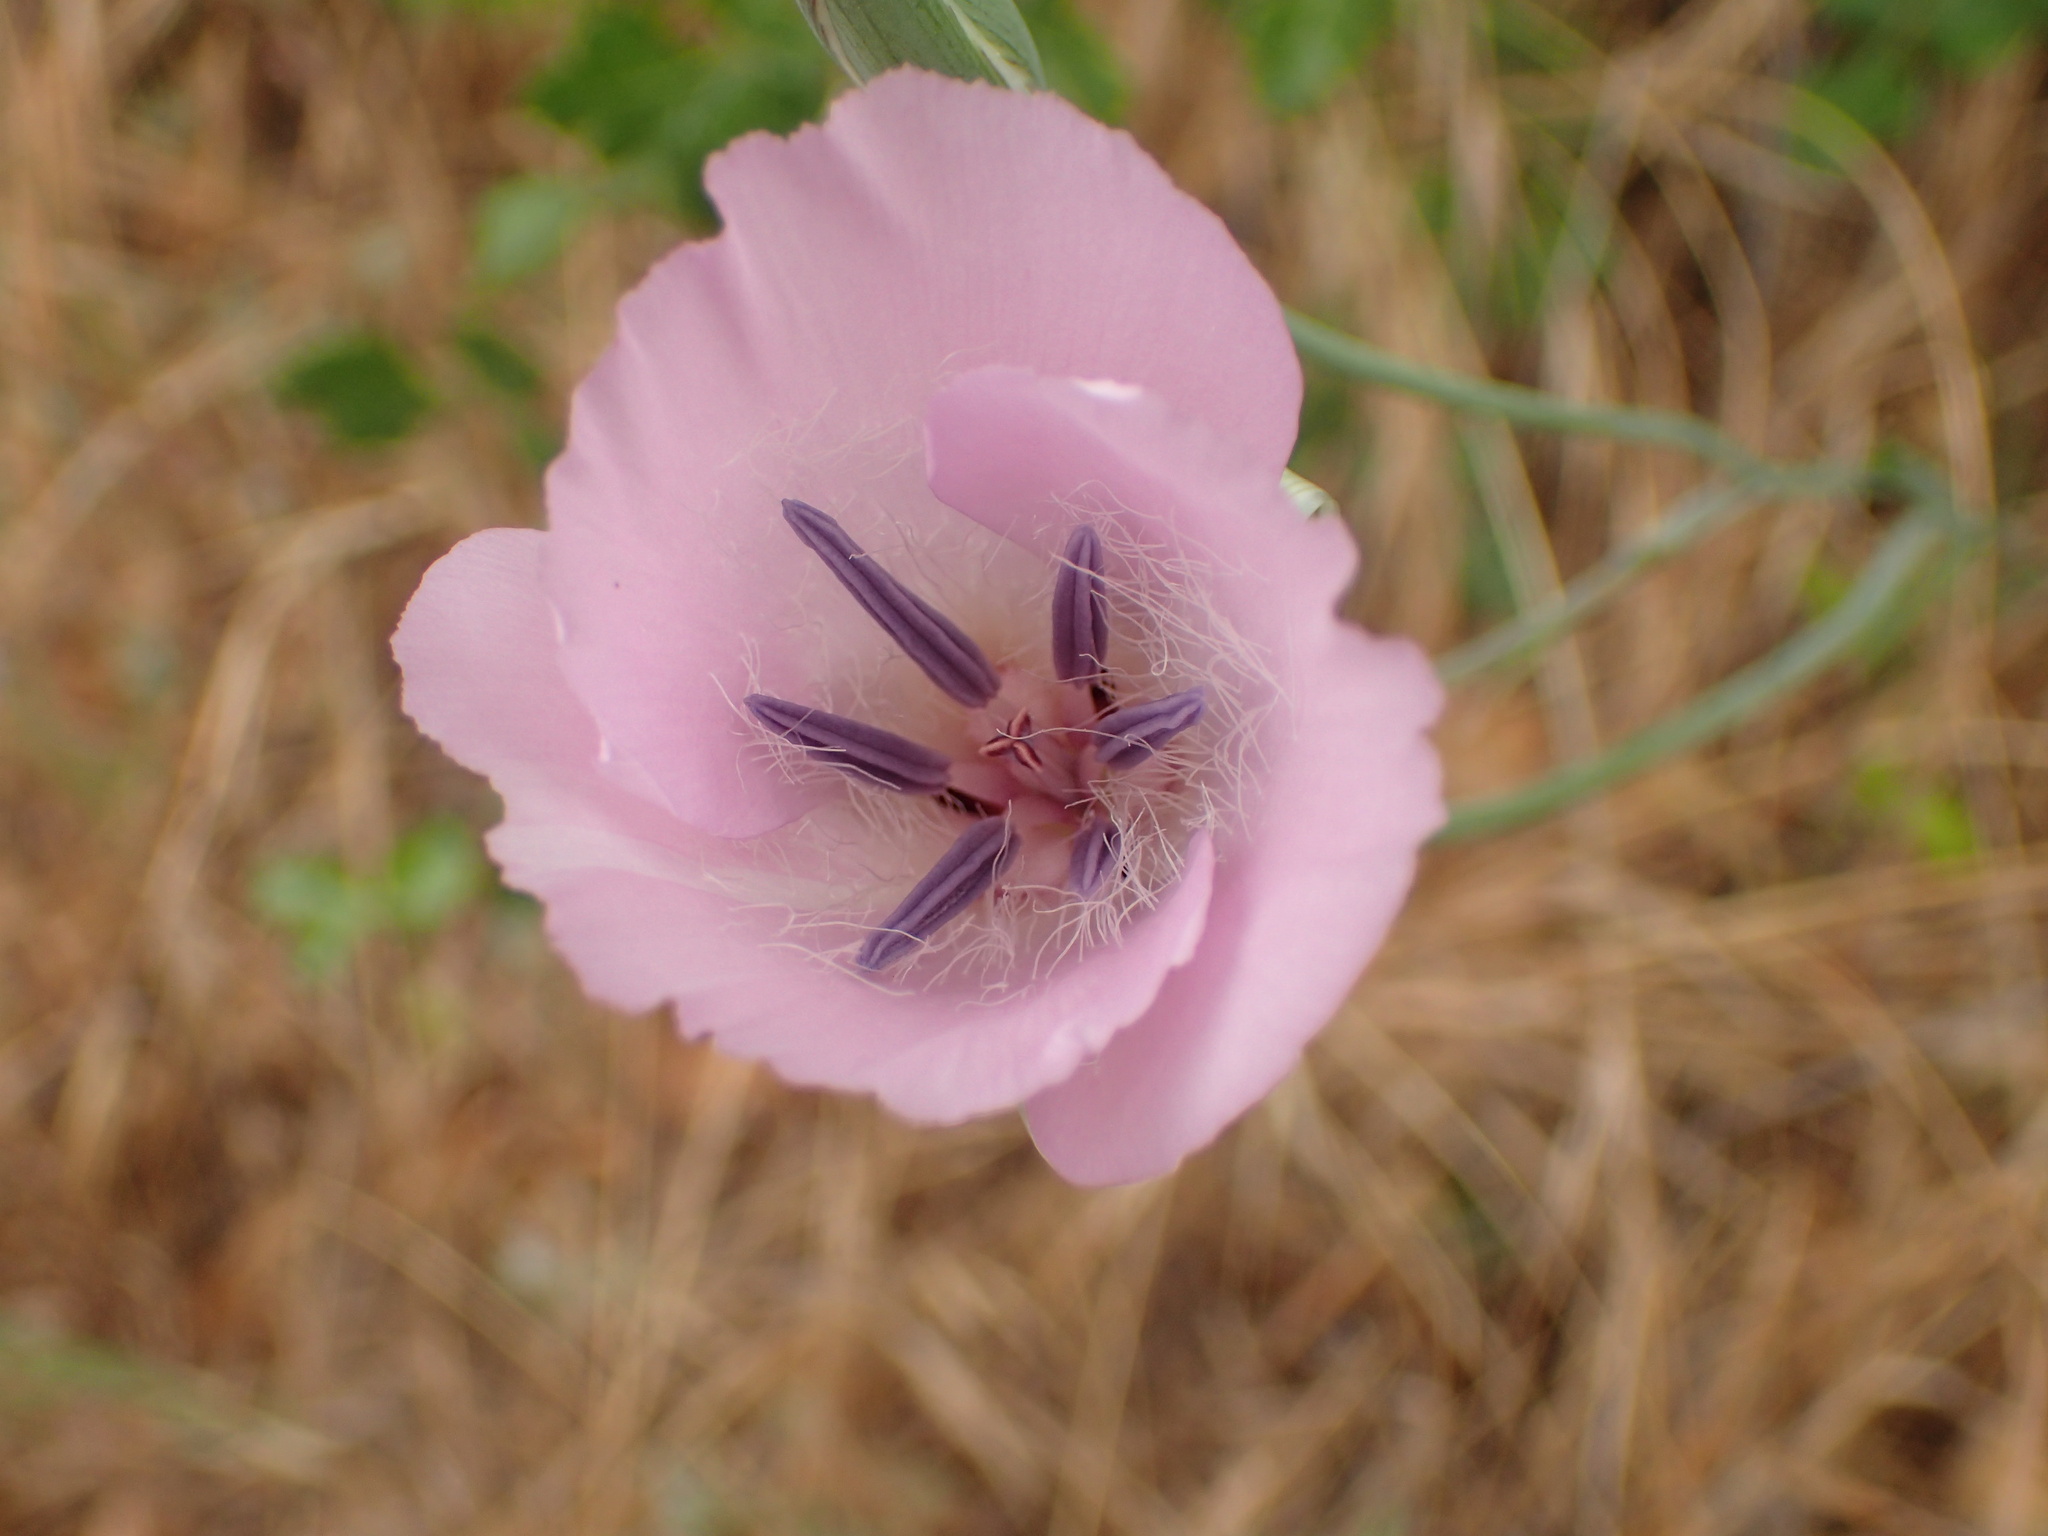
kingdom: Plantae
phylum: Tracheophyta
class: Liliopsida
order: Liliales
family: Liliaceae
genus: Calochortus
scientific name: Calochortus splendens
